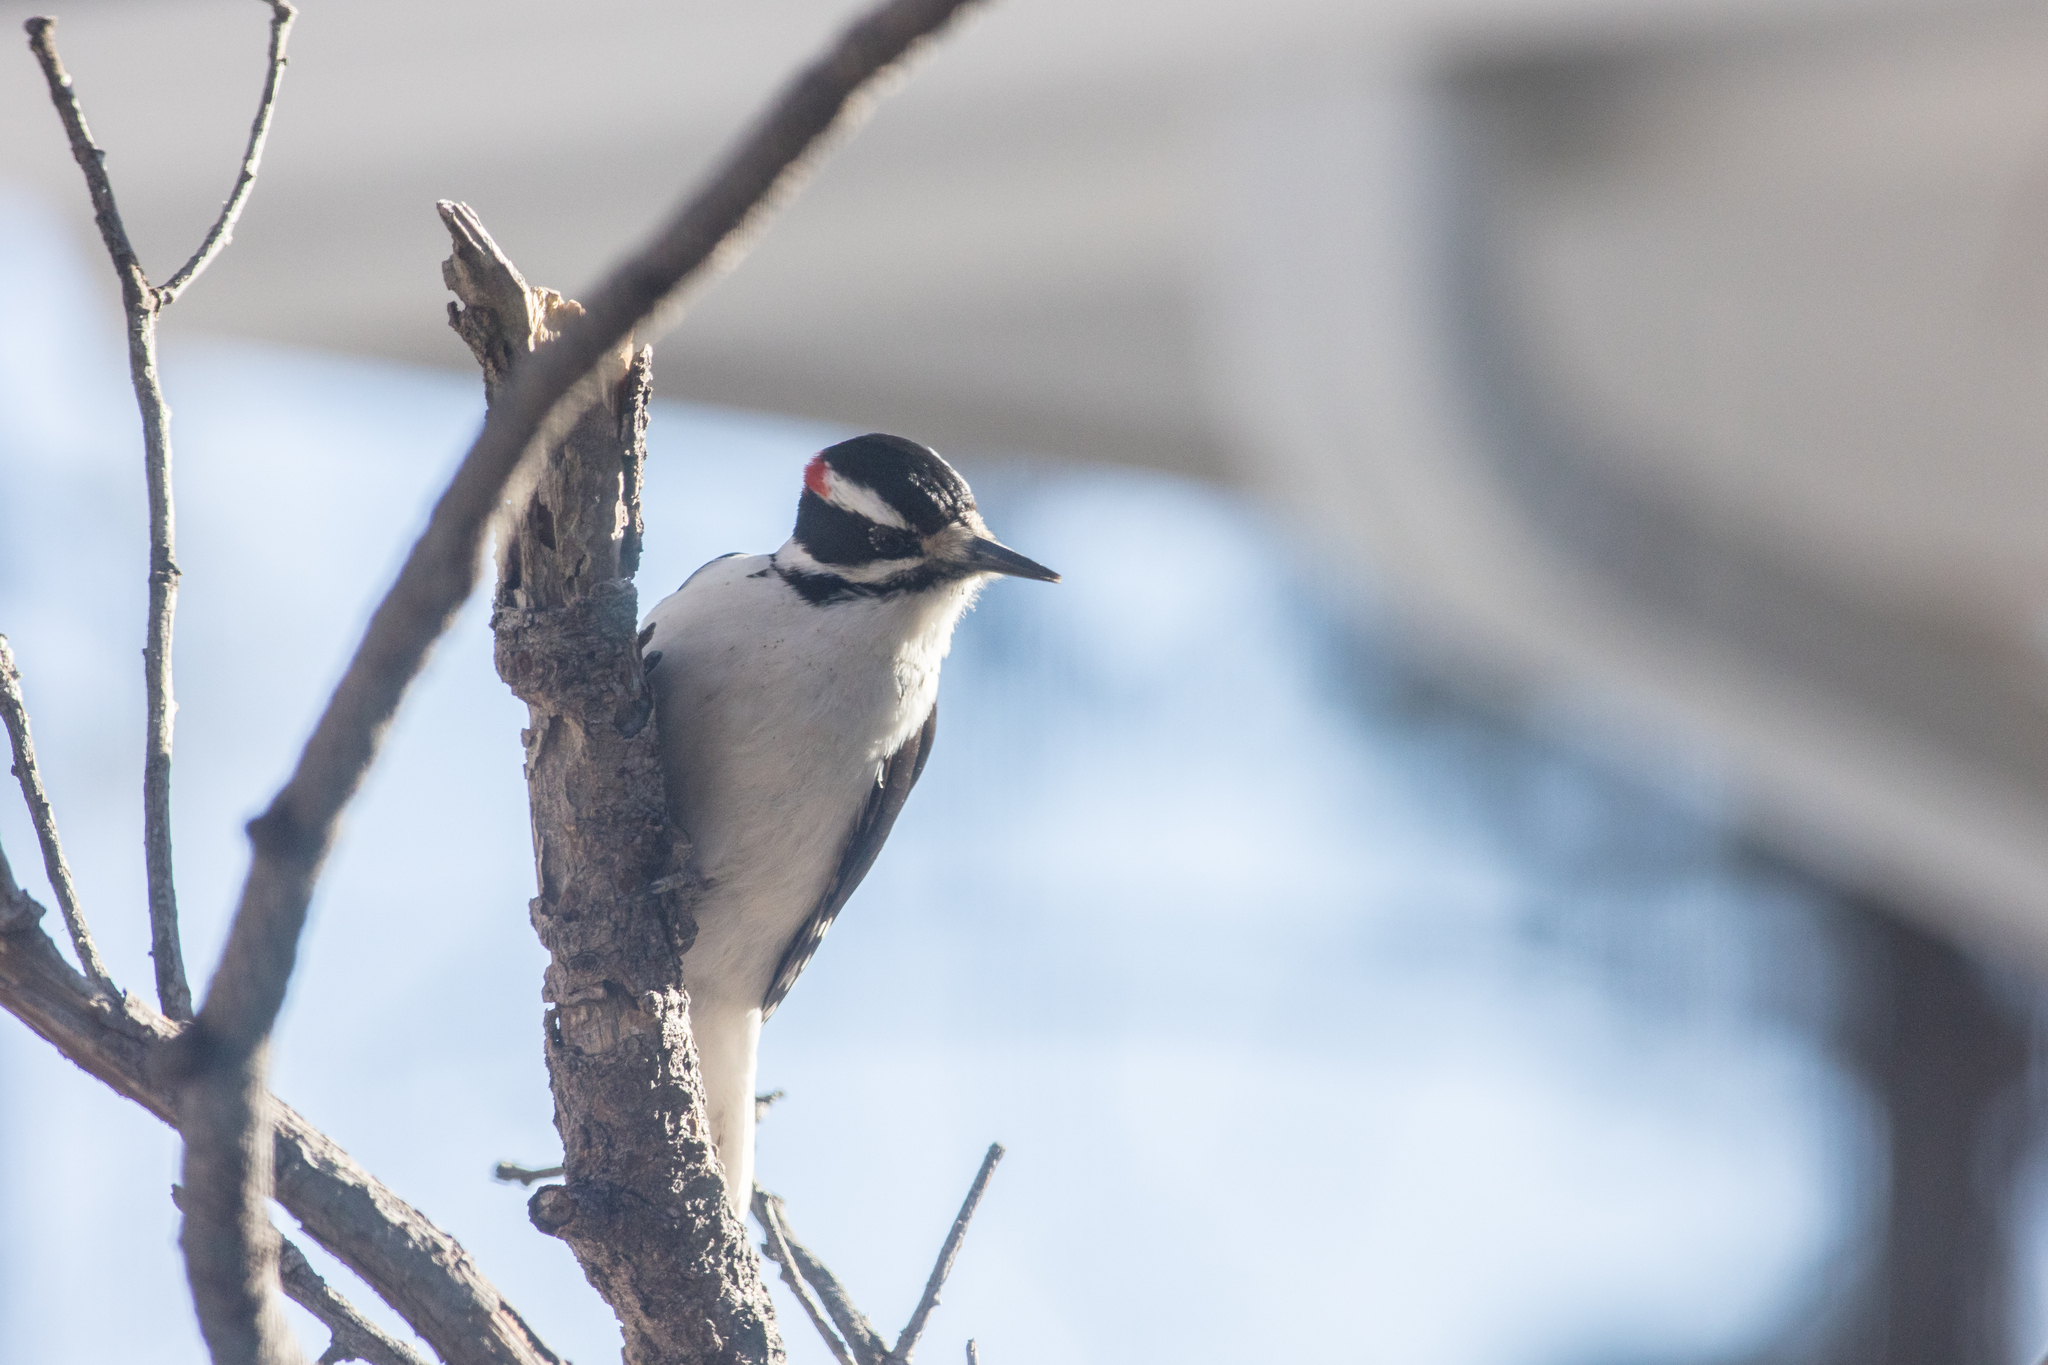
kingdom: Animalia
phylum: Chordata
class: Aves
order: Piciformes
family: Picidae
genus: Leuconotopicus
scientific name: Leuconotopicus villosus
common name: Hairy woodpecker
